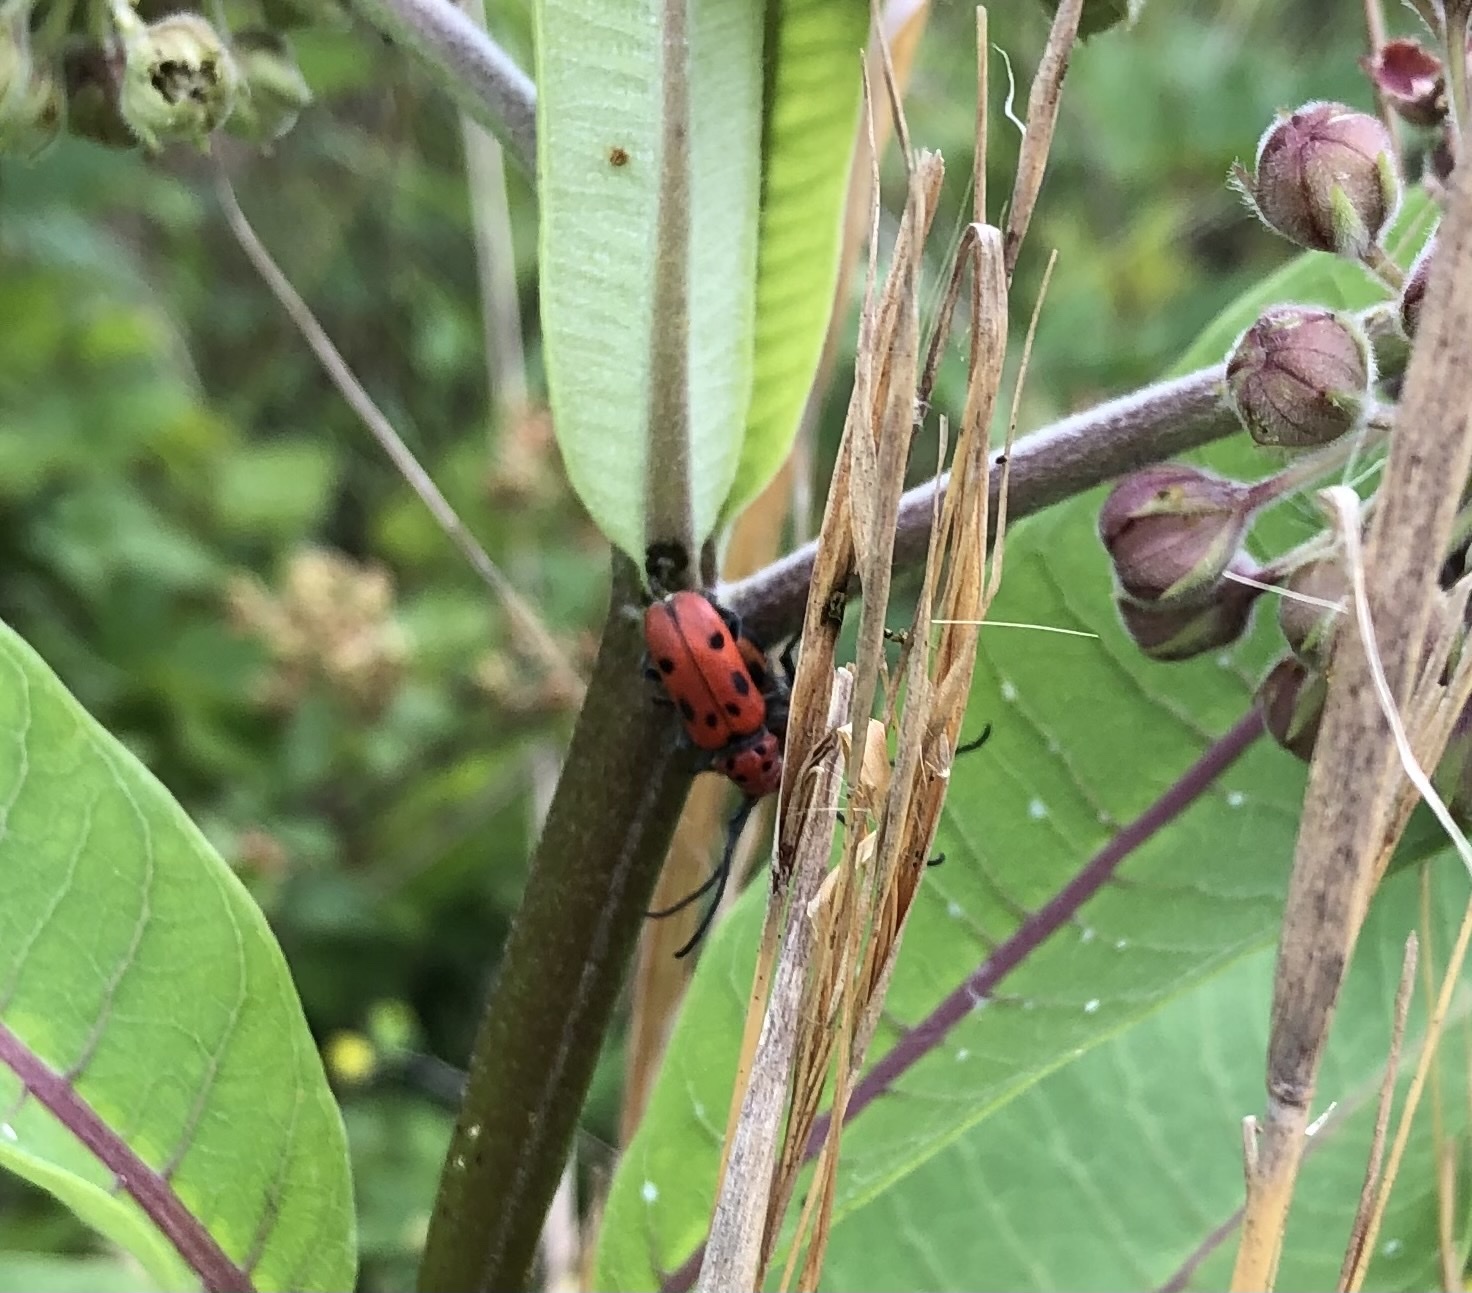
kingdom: Animalia
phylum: Arthropoda
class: Insecta
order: Coleoptera
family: Cerambycidae
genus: Tetraopes
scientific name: Tetraopes tetrophthalmus
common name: Red milkweed beetle
